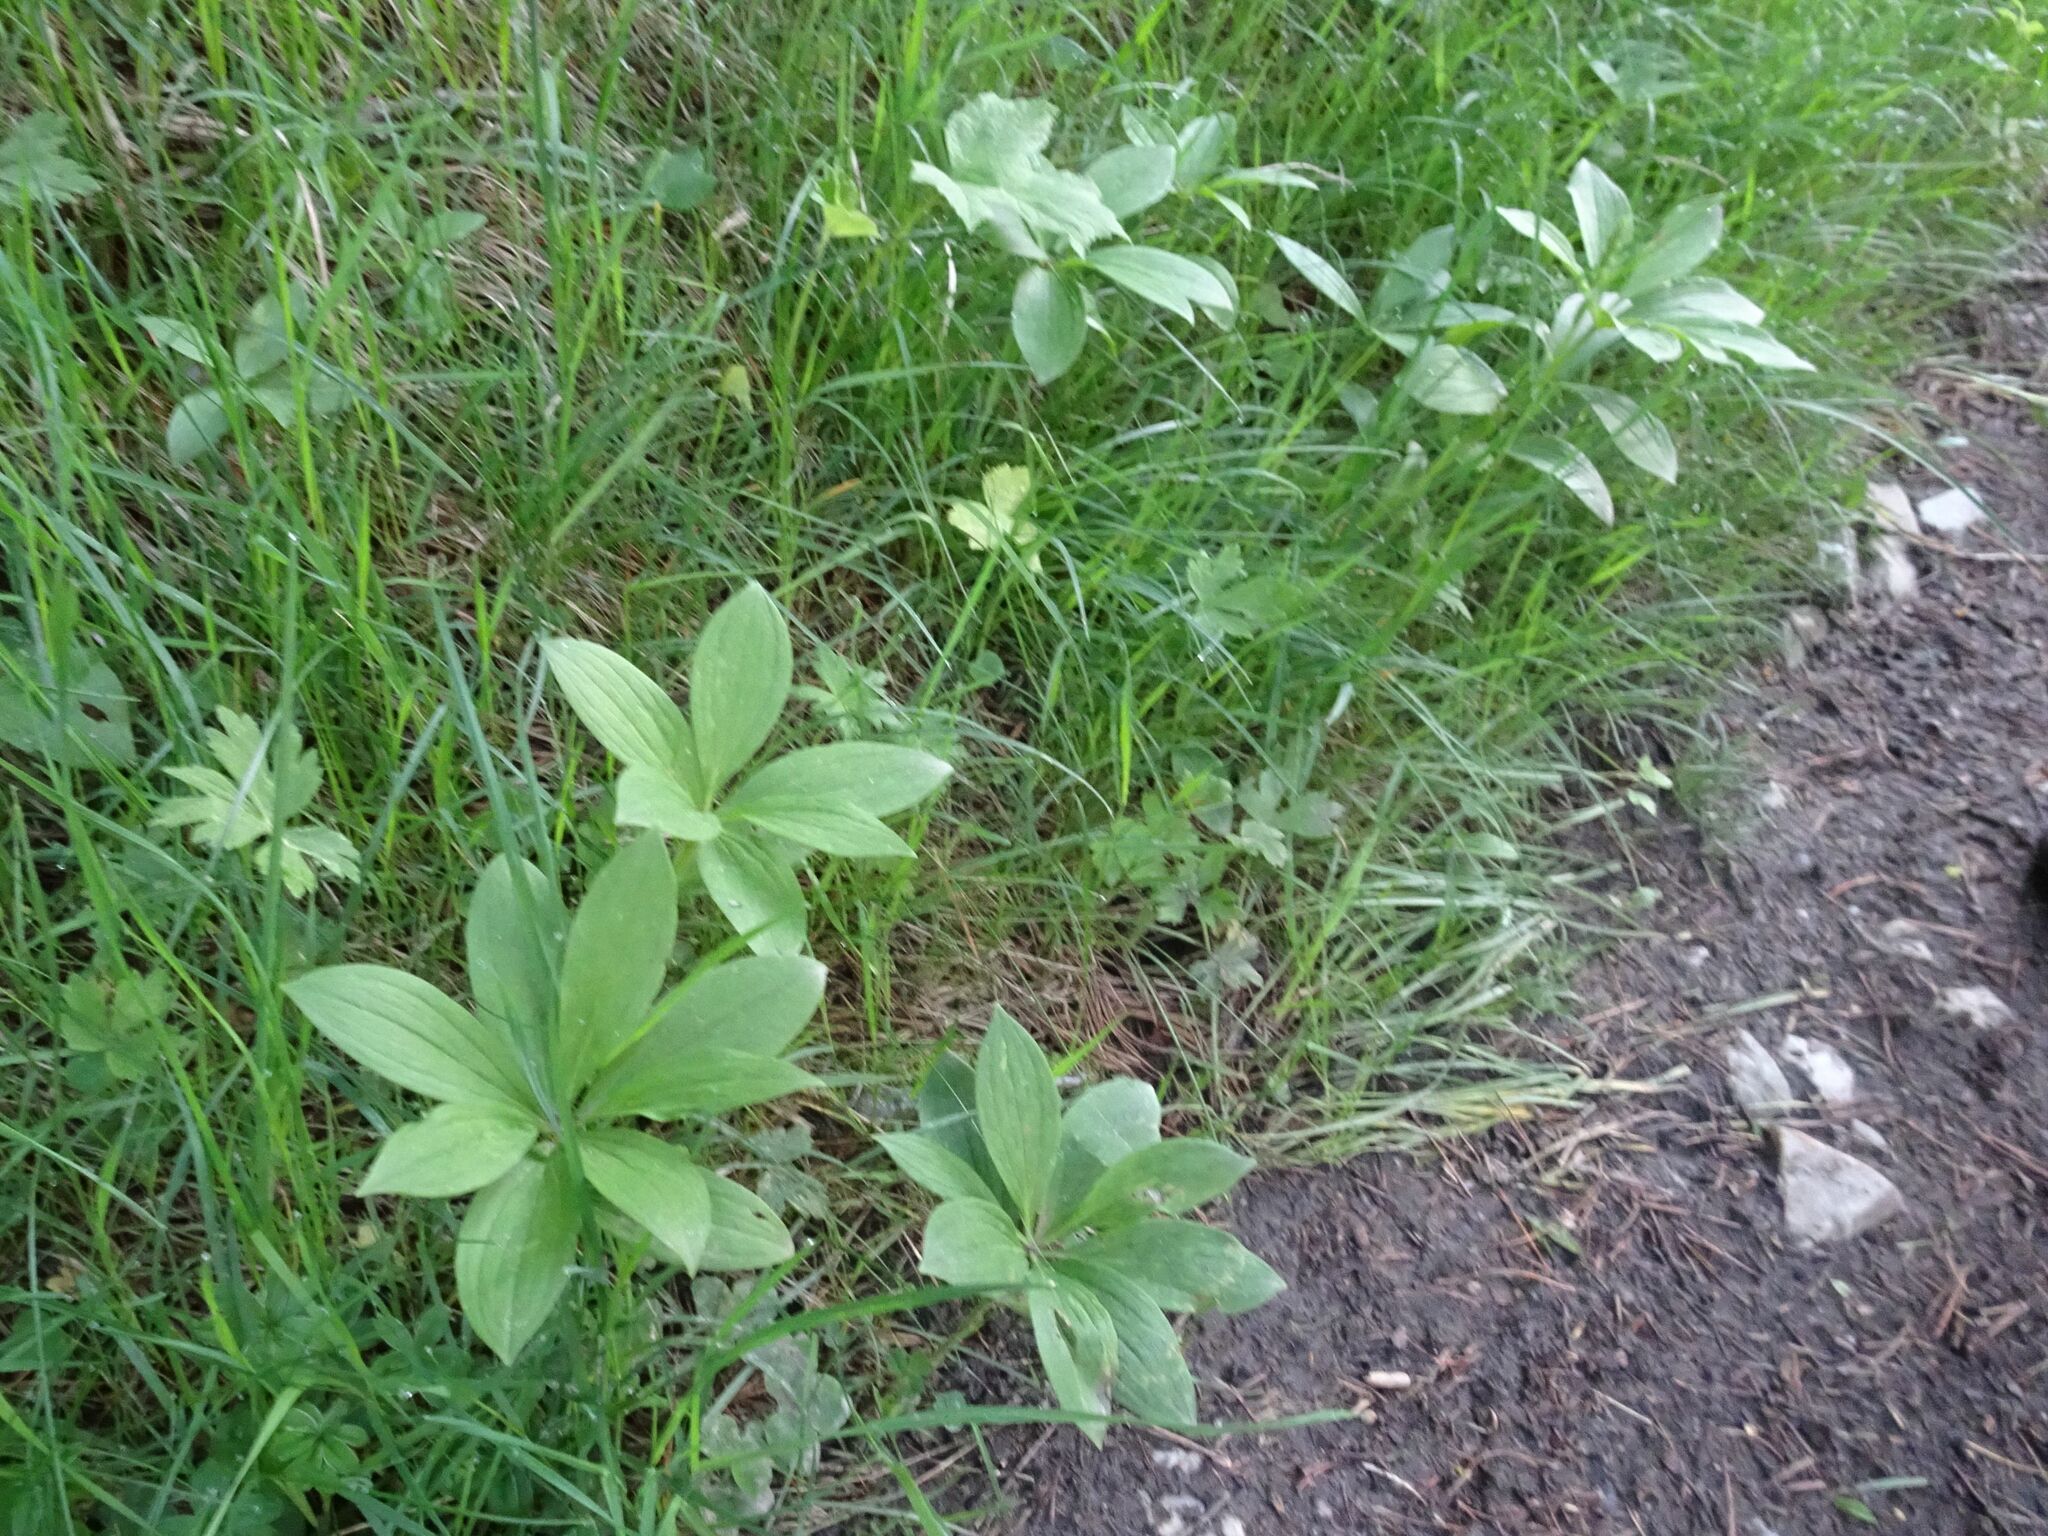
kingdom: Plantae
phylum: Tracheophyta
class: Liliopsida
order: Liliales
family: Liliaceae
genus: Lilium
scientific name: Lilium martagon
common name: Martagon lily
